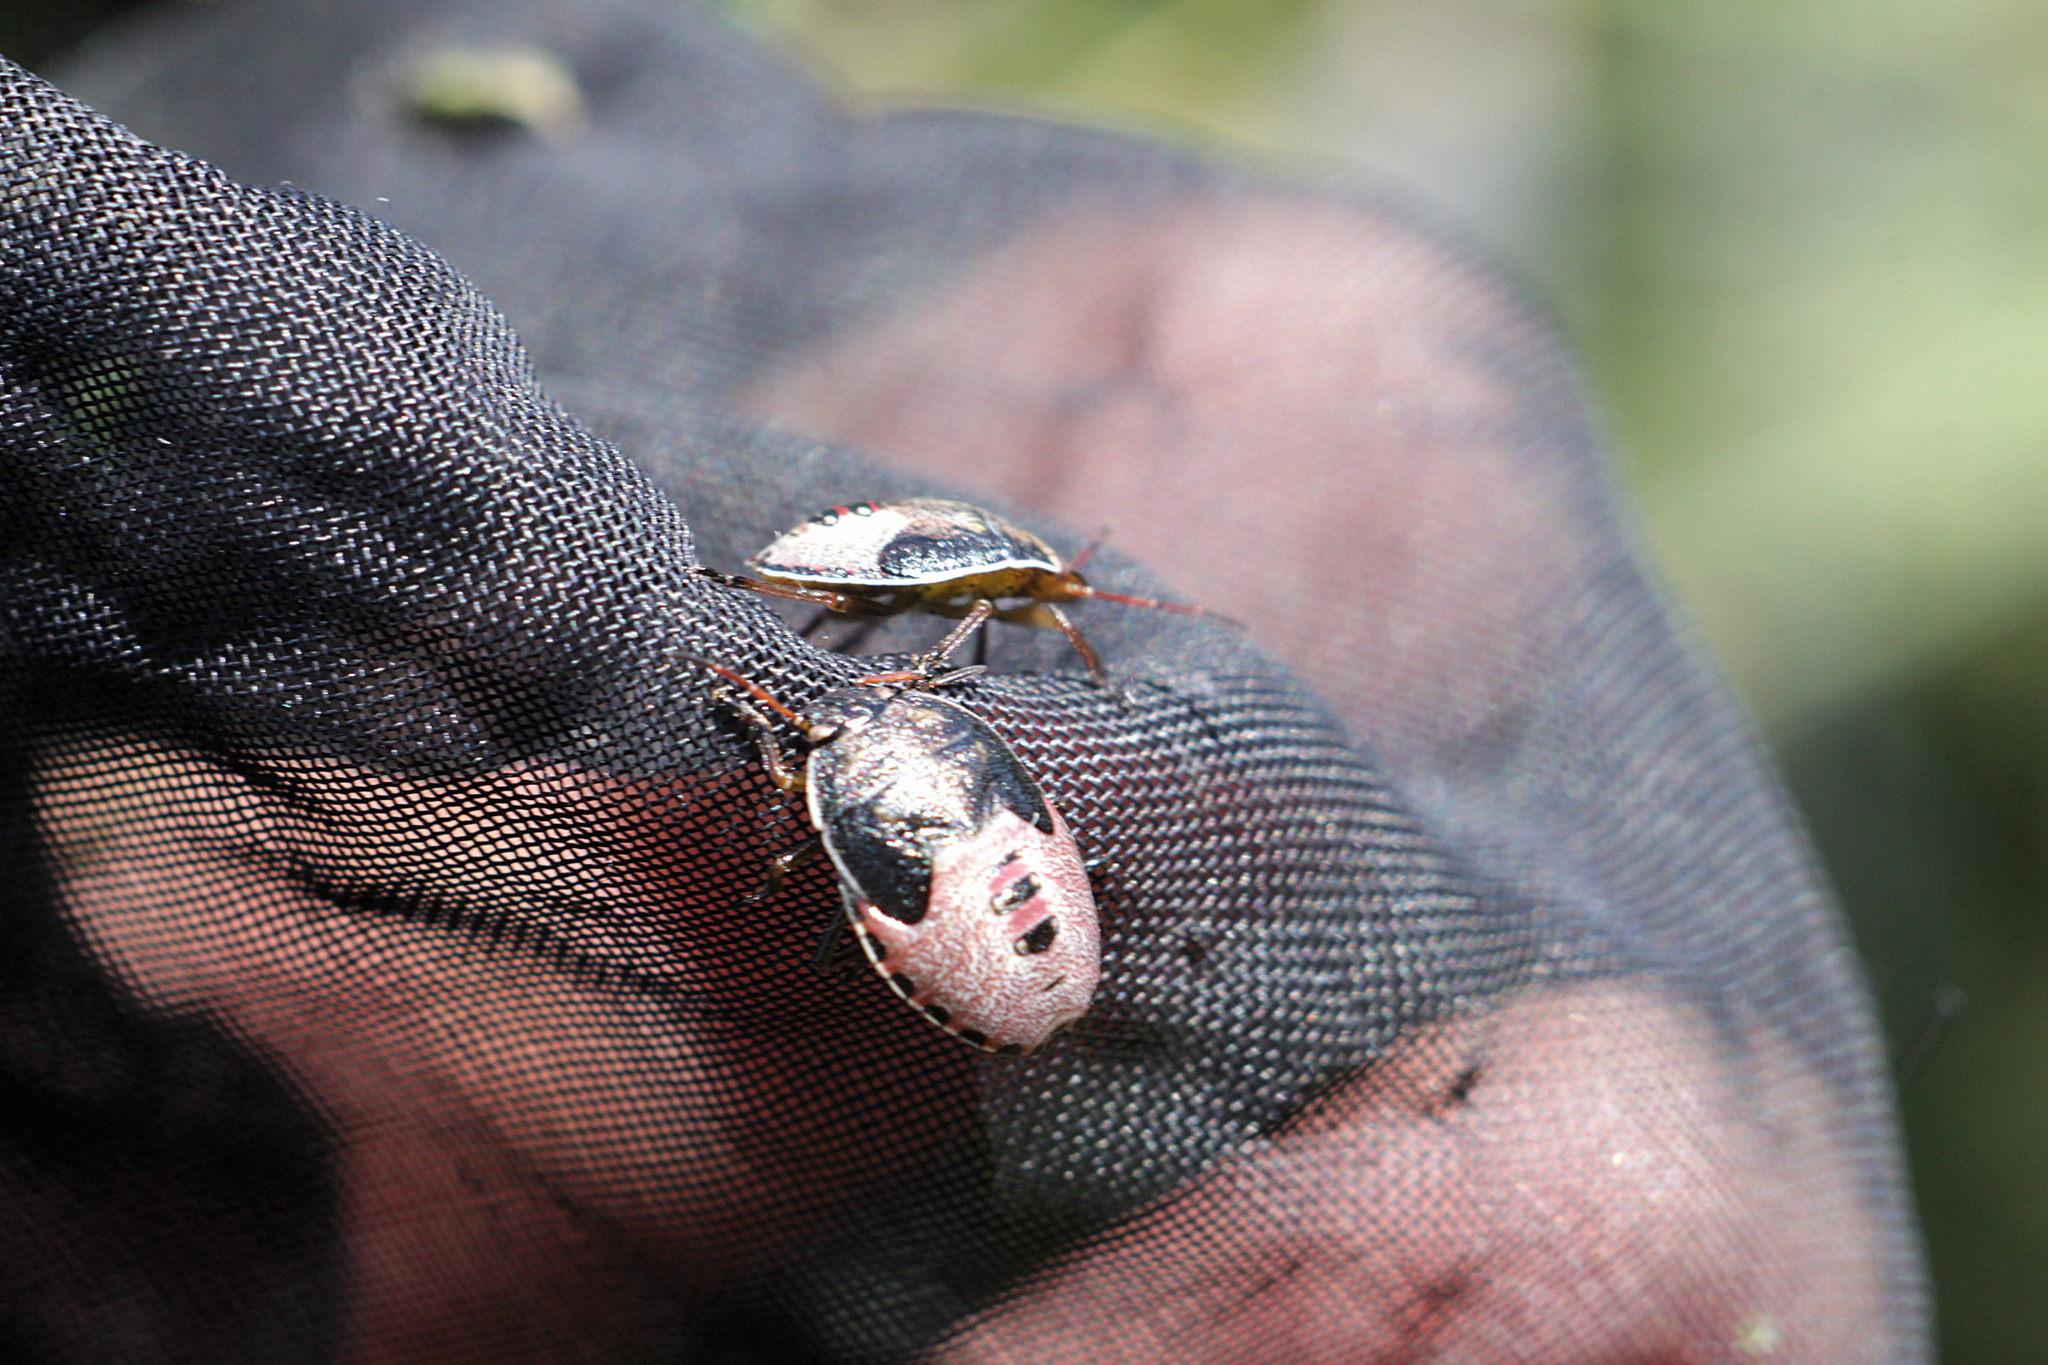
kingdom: Animalia
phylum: Arthropoda
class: Insecta
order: Hemiptera
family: Pentatomidae
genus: Piezodorus
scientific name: Piezodorus lituratus
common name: Stink bug
